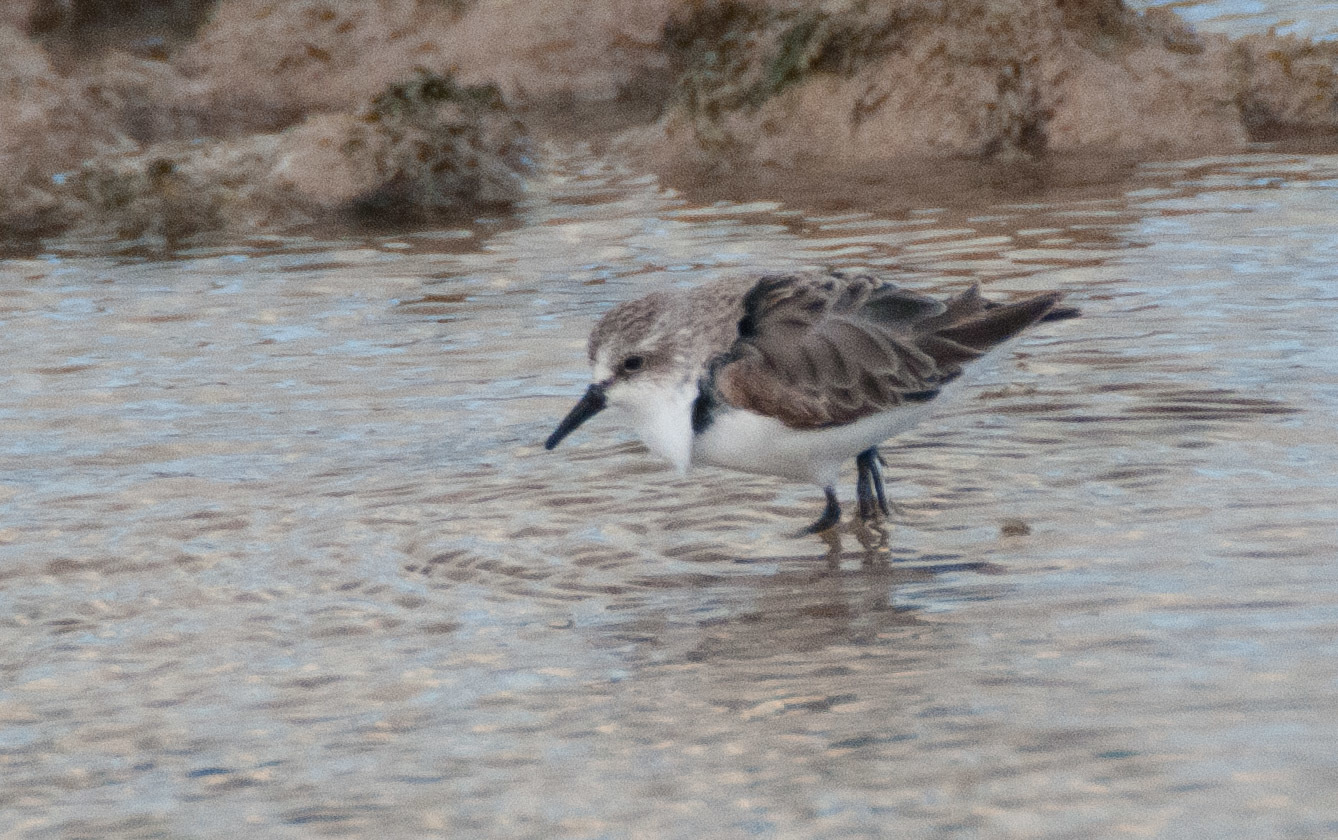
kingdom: Animalia
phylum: Chordata
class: Aves
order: Charadriiformes
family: Scolopacidae
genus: Calidris
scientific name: Calidris ruficollis
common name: Red-necked stint
